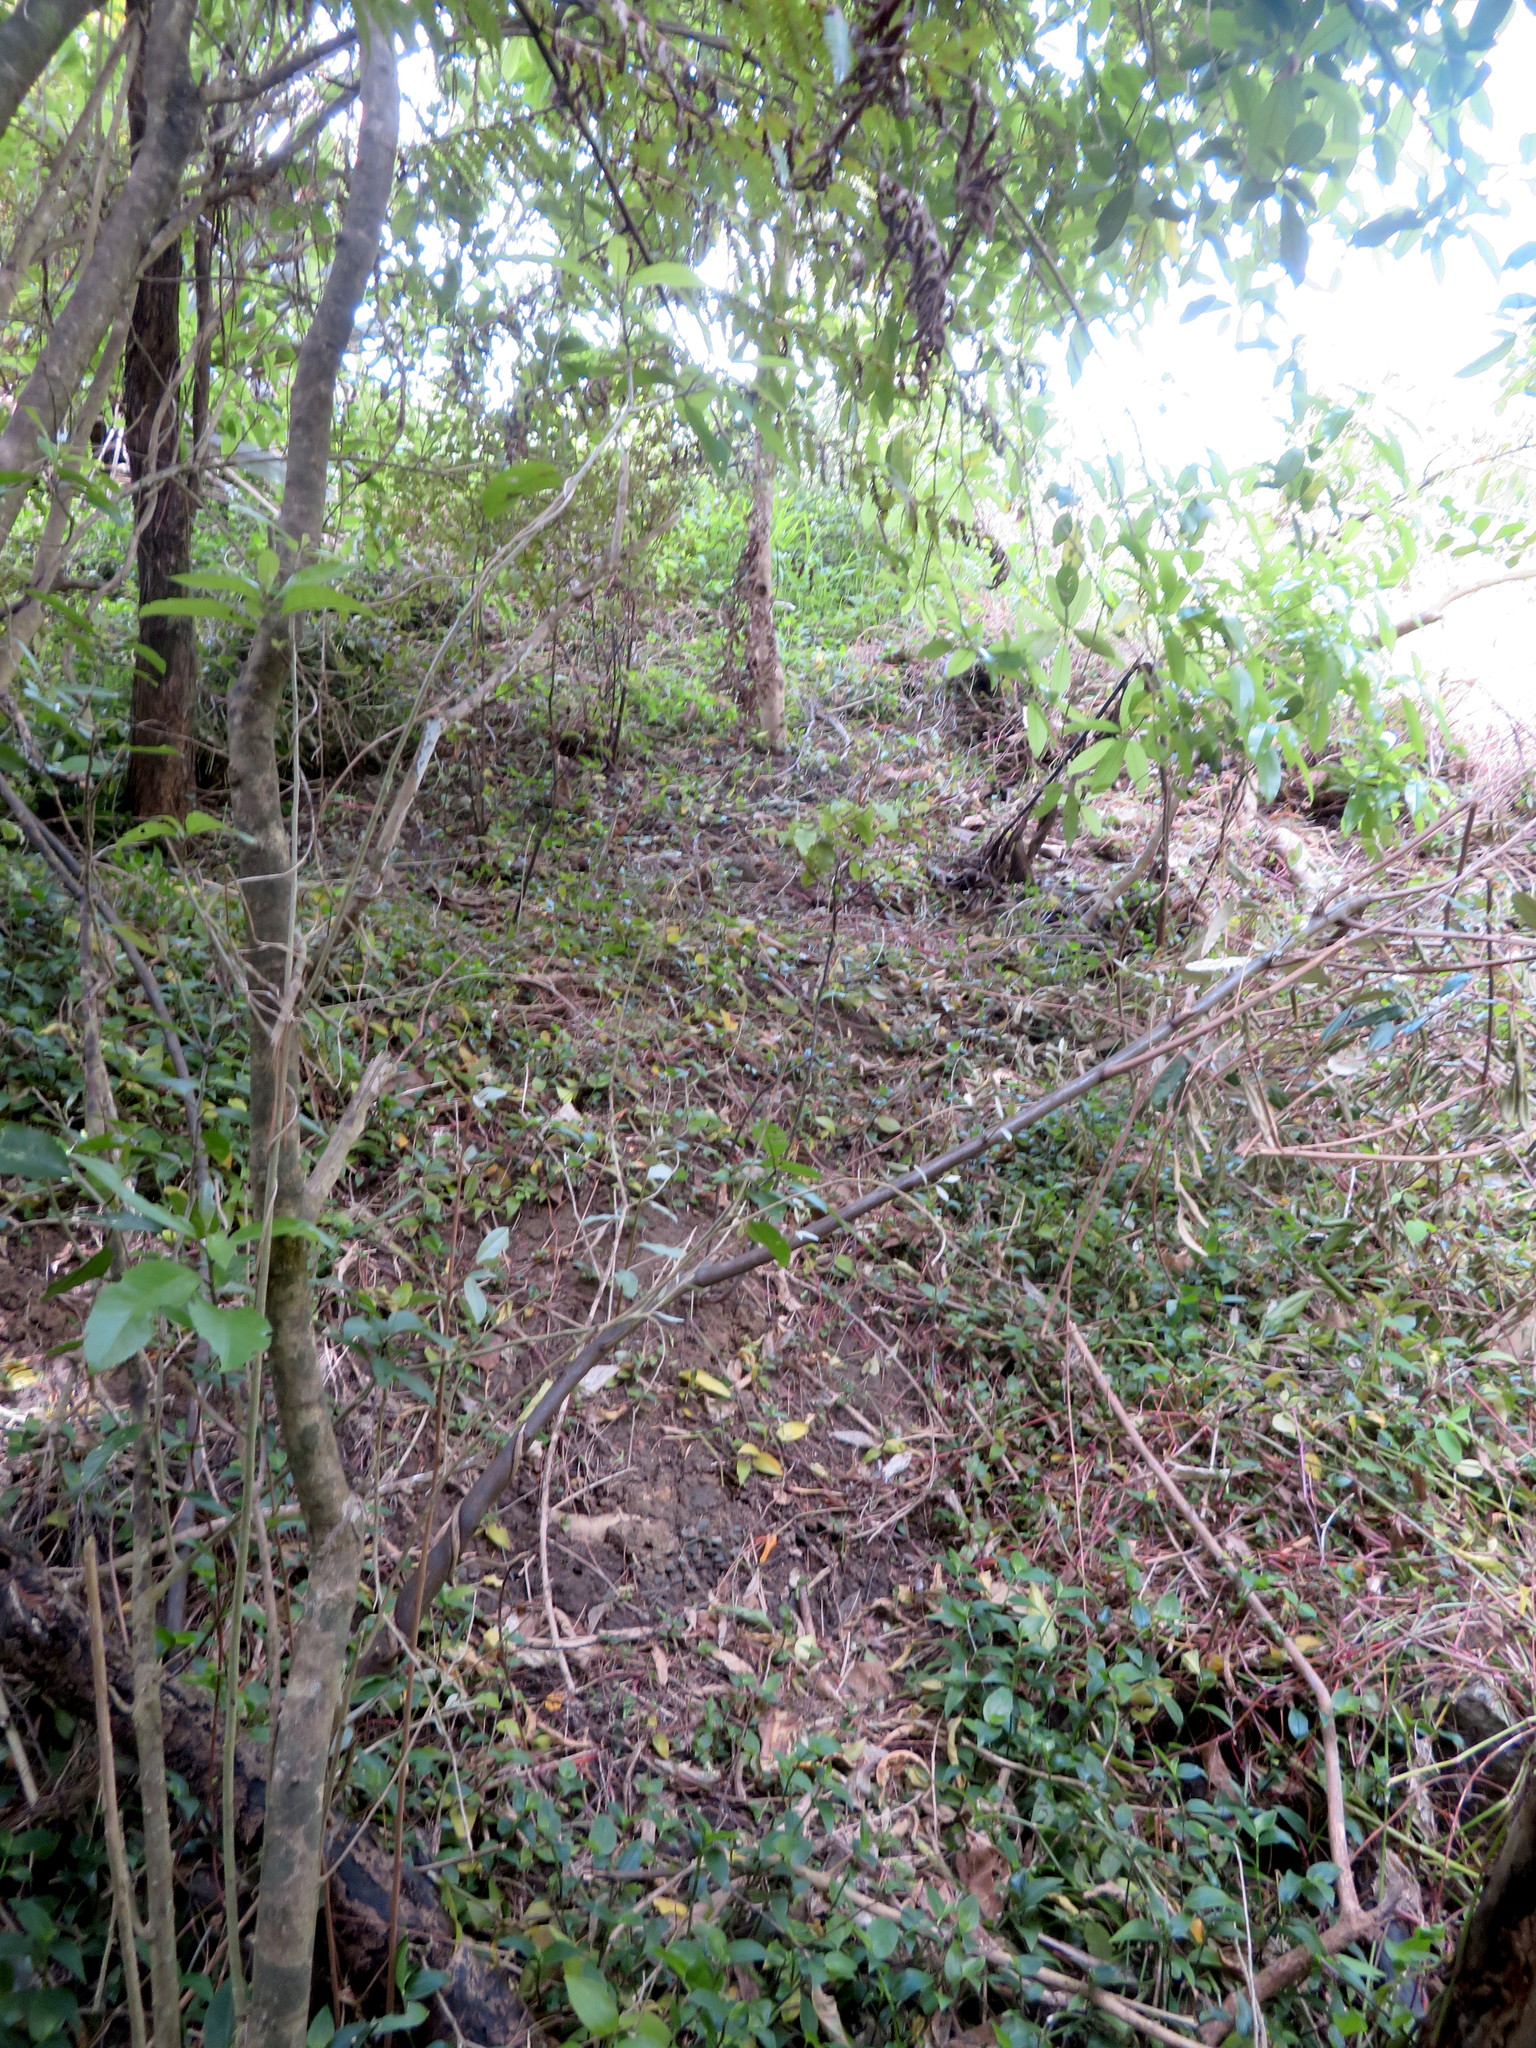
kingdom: Plantae
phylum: Tracheophyta
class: Liliopsida
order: Commelinales
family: Commelinaceae
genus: Tradescantia
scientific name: Tradescantia fluminensis
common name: Wandering-jew
